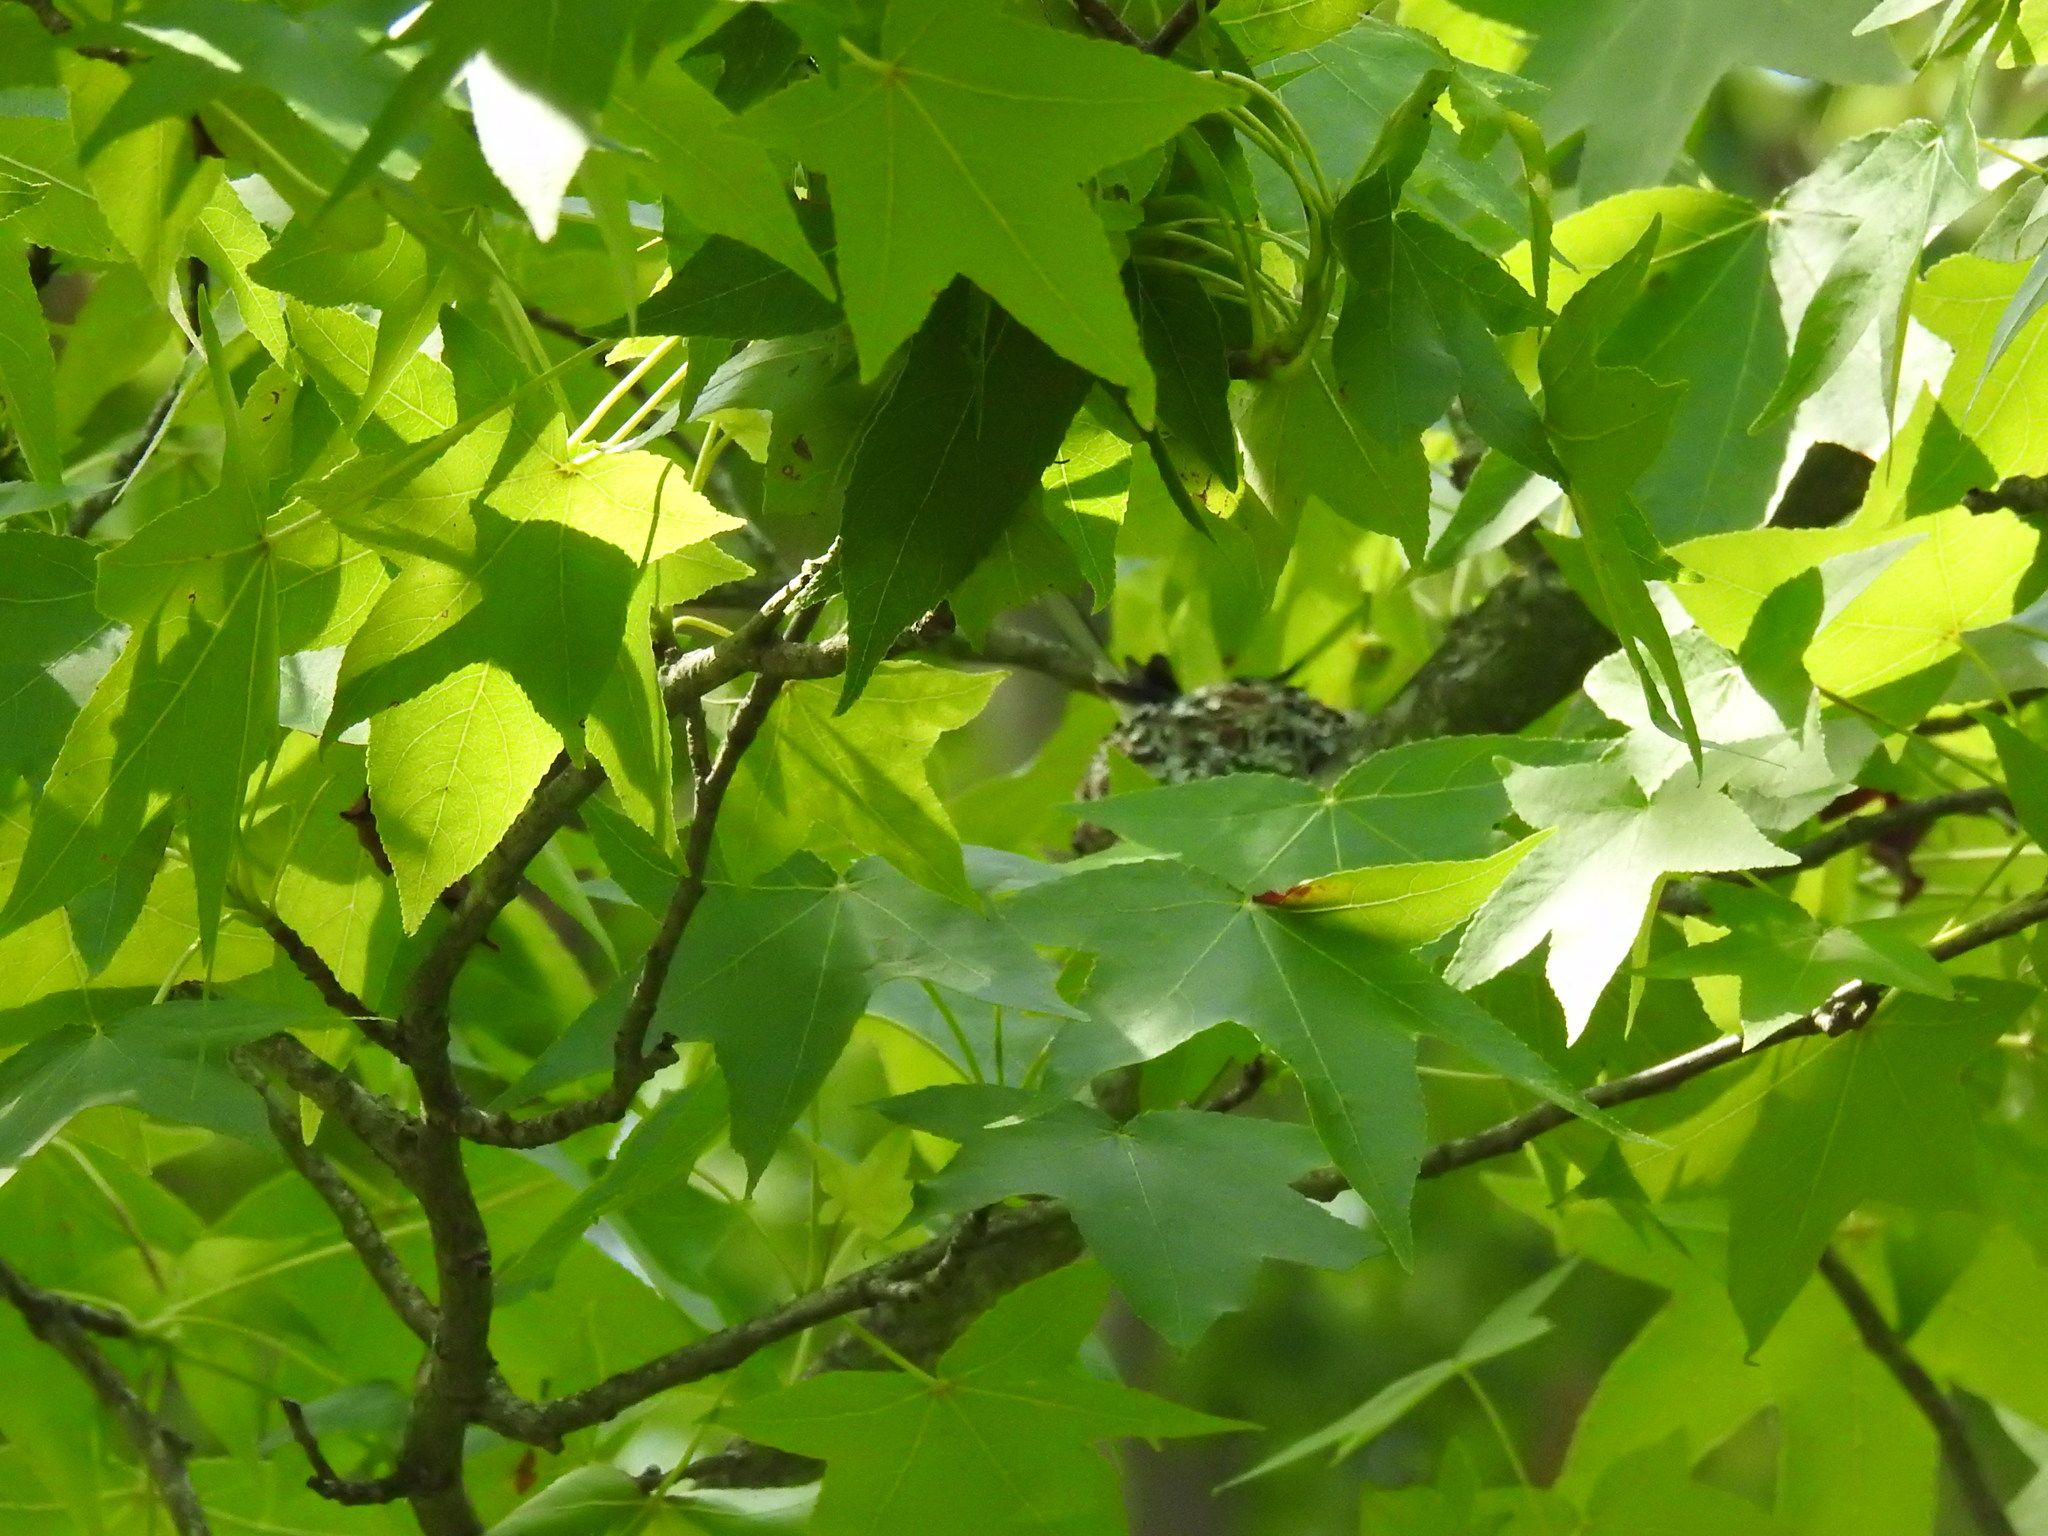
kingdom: Animalia
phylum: Chordata
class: Aves
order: Passeriformes
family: Polioptilidae
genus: Polioptila
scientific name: Polioptila caerulea
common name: Blue-gray gnatcatcher
